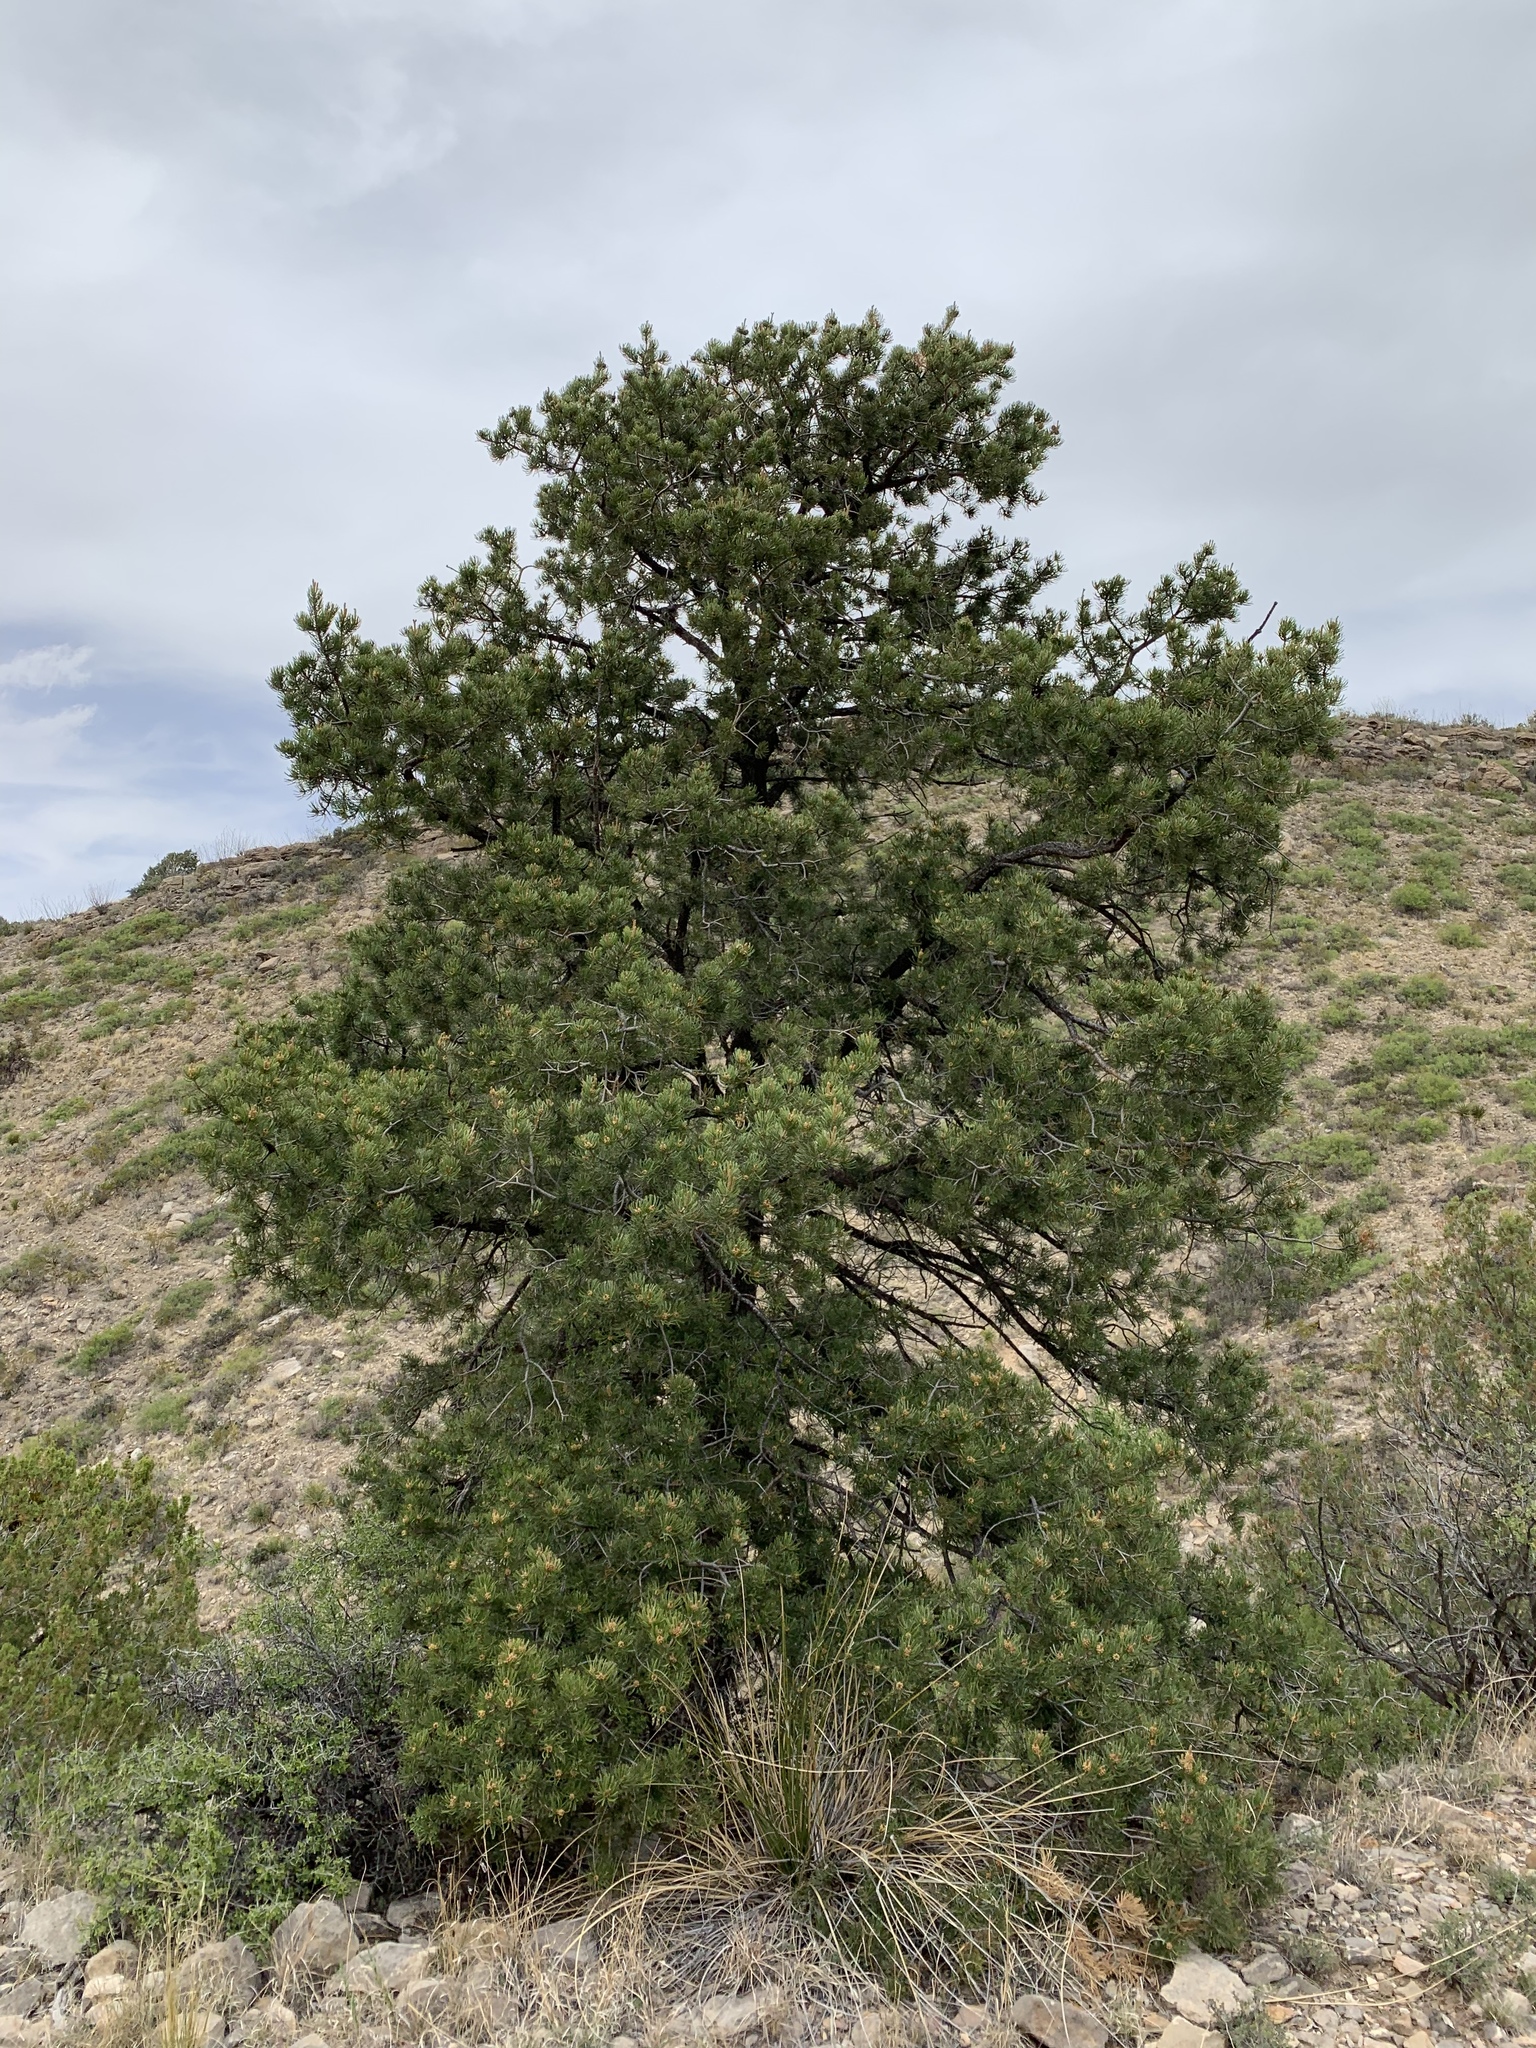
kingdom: Plantae
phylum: Tracheophyta
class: Pinopsida
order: Pinales
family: Pinaceae
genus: Pinus
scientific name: Pinus edulis
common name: Colorado pinyon
